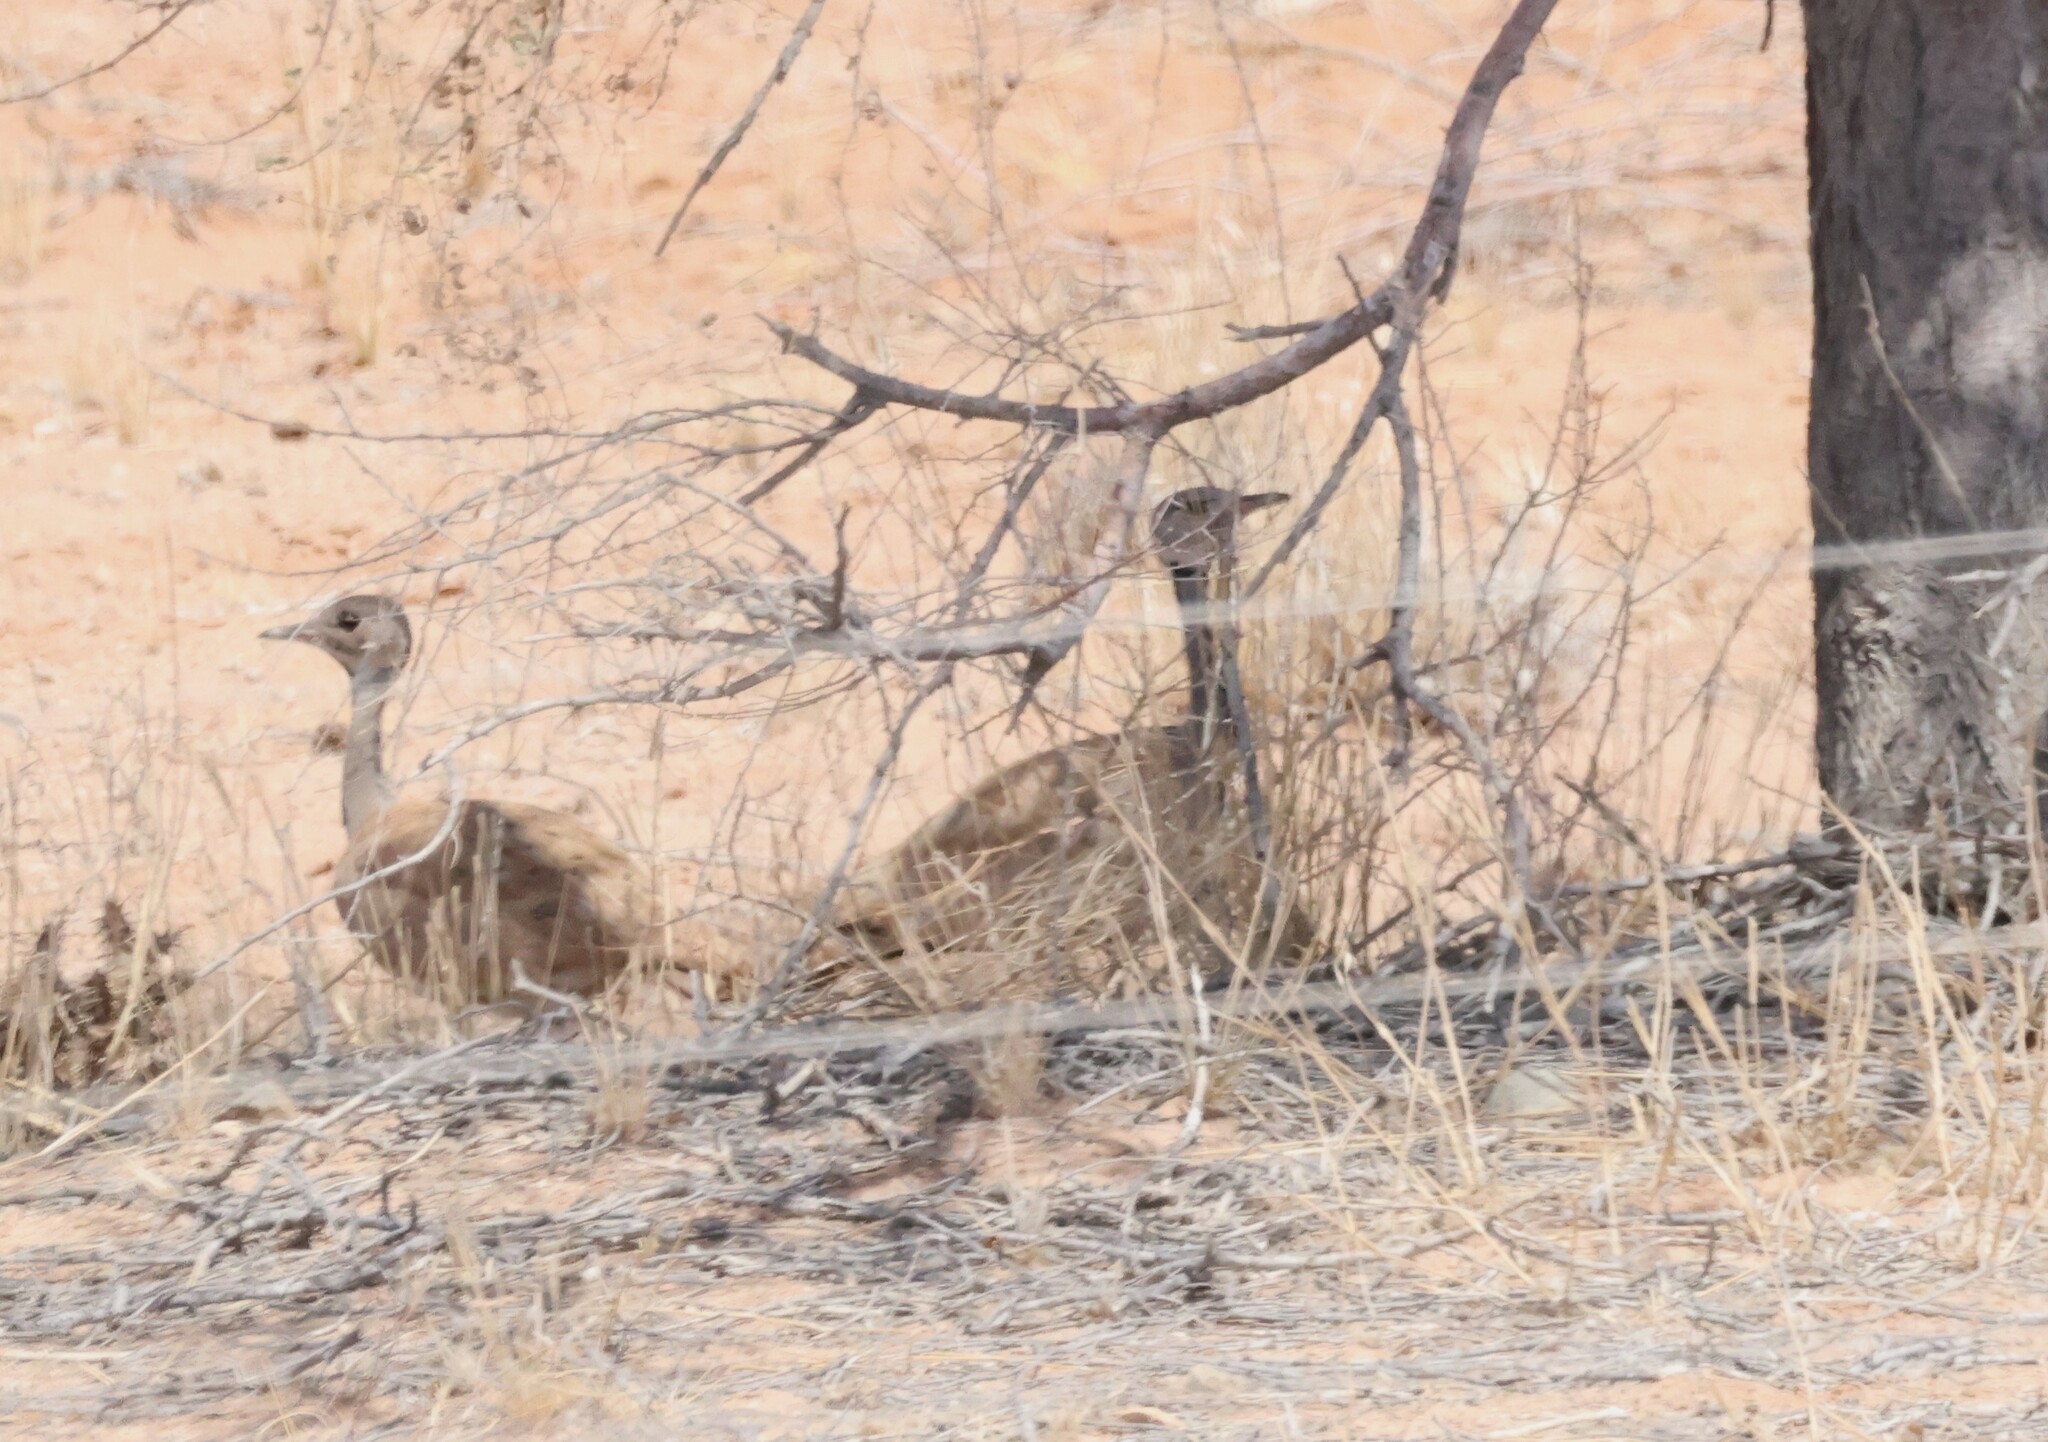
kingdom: Animalia
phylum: Chordata
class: Aves
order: Otidiformes
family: Otididae
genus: Heterotetrax
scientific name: Heterotetrax rueppelii
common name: Rüppell's korhaan
